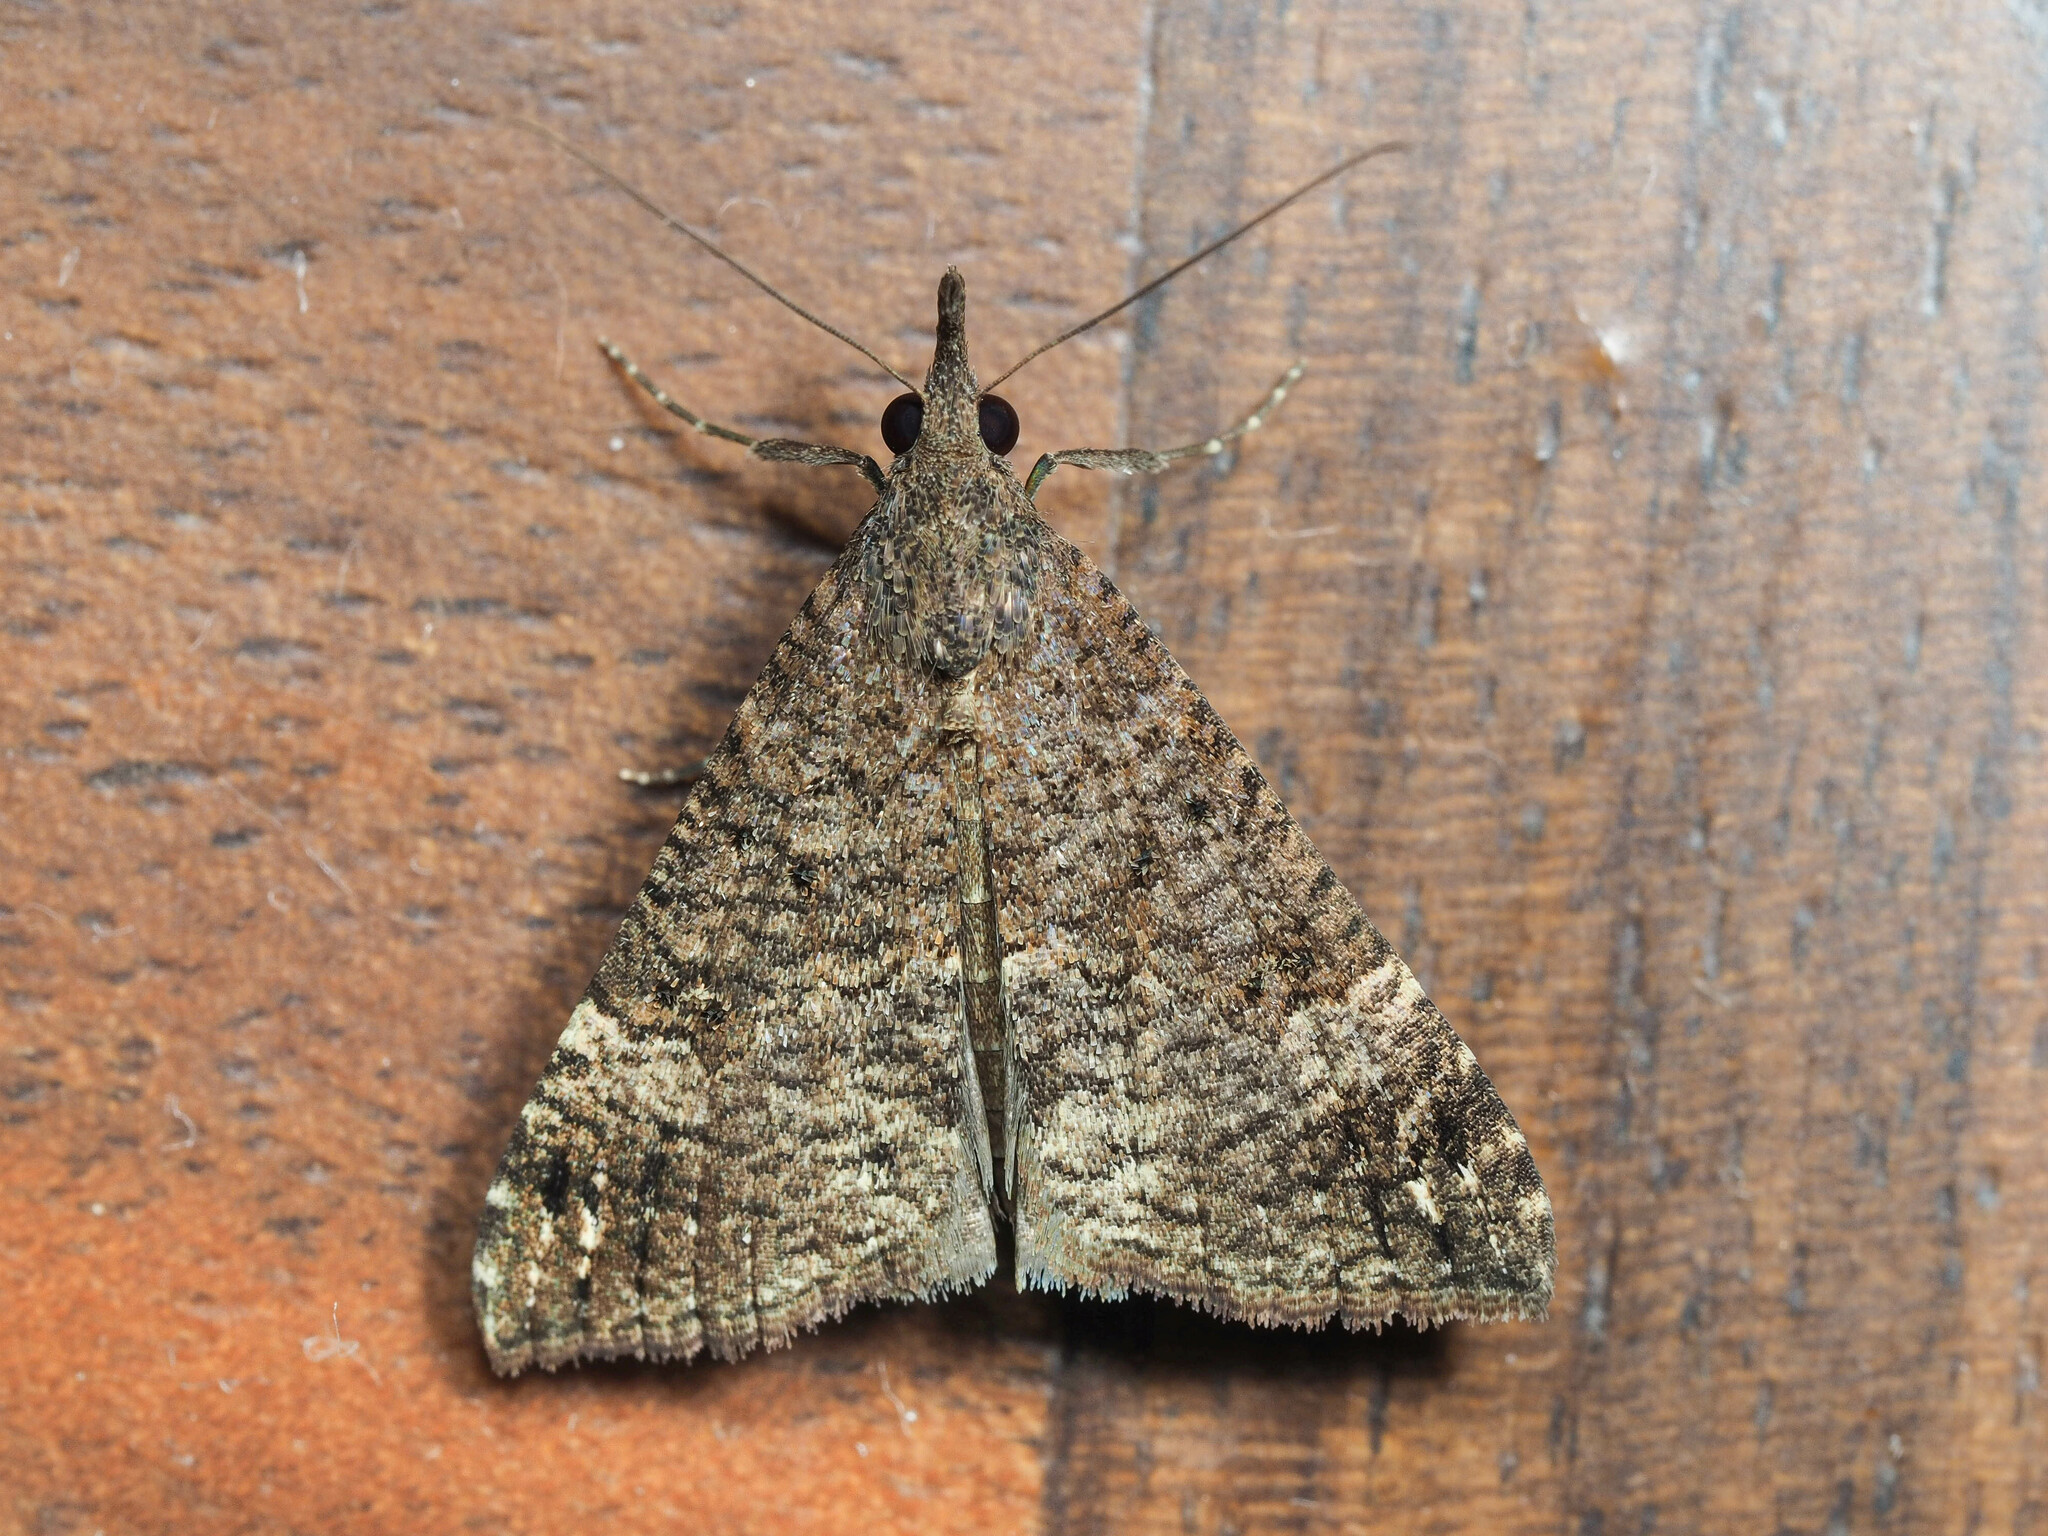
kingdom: Animalia
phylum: Arthropoda
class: Insecta
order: Lepidoptera
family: Erebidae
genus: Hypena
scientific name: Hypena obsitalis
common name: Bloxworth snout
